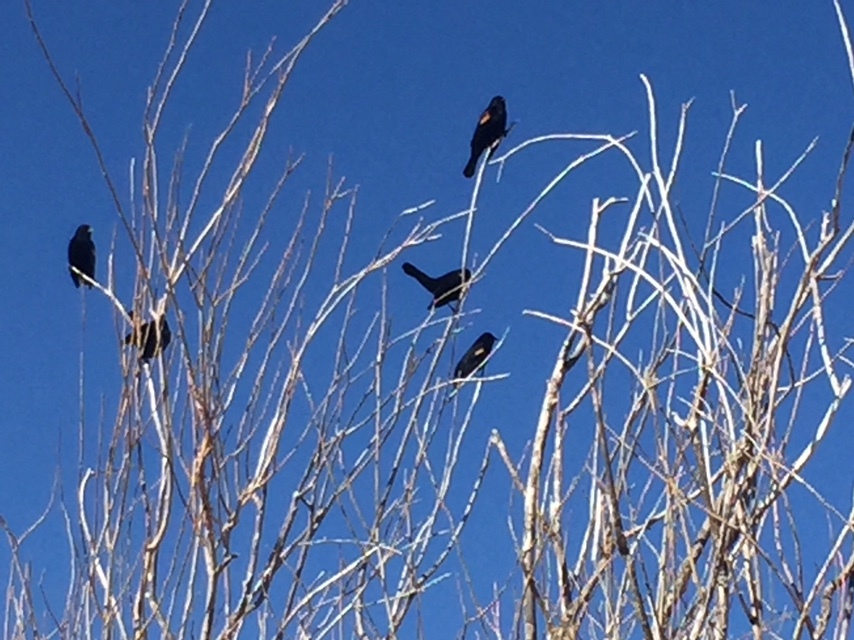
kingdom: Animalia
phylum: Chordata
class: Aves
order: Passeriformes
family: Icteridae
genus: Agelaius
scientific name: Agelaius phoeniceus
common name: Red-winged blackbird
